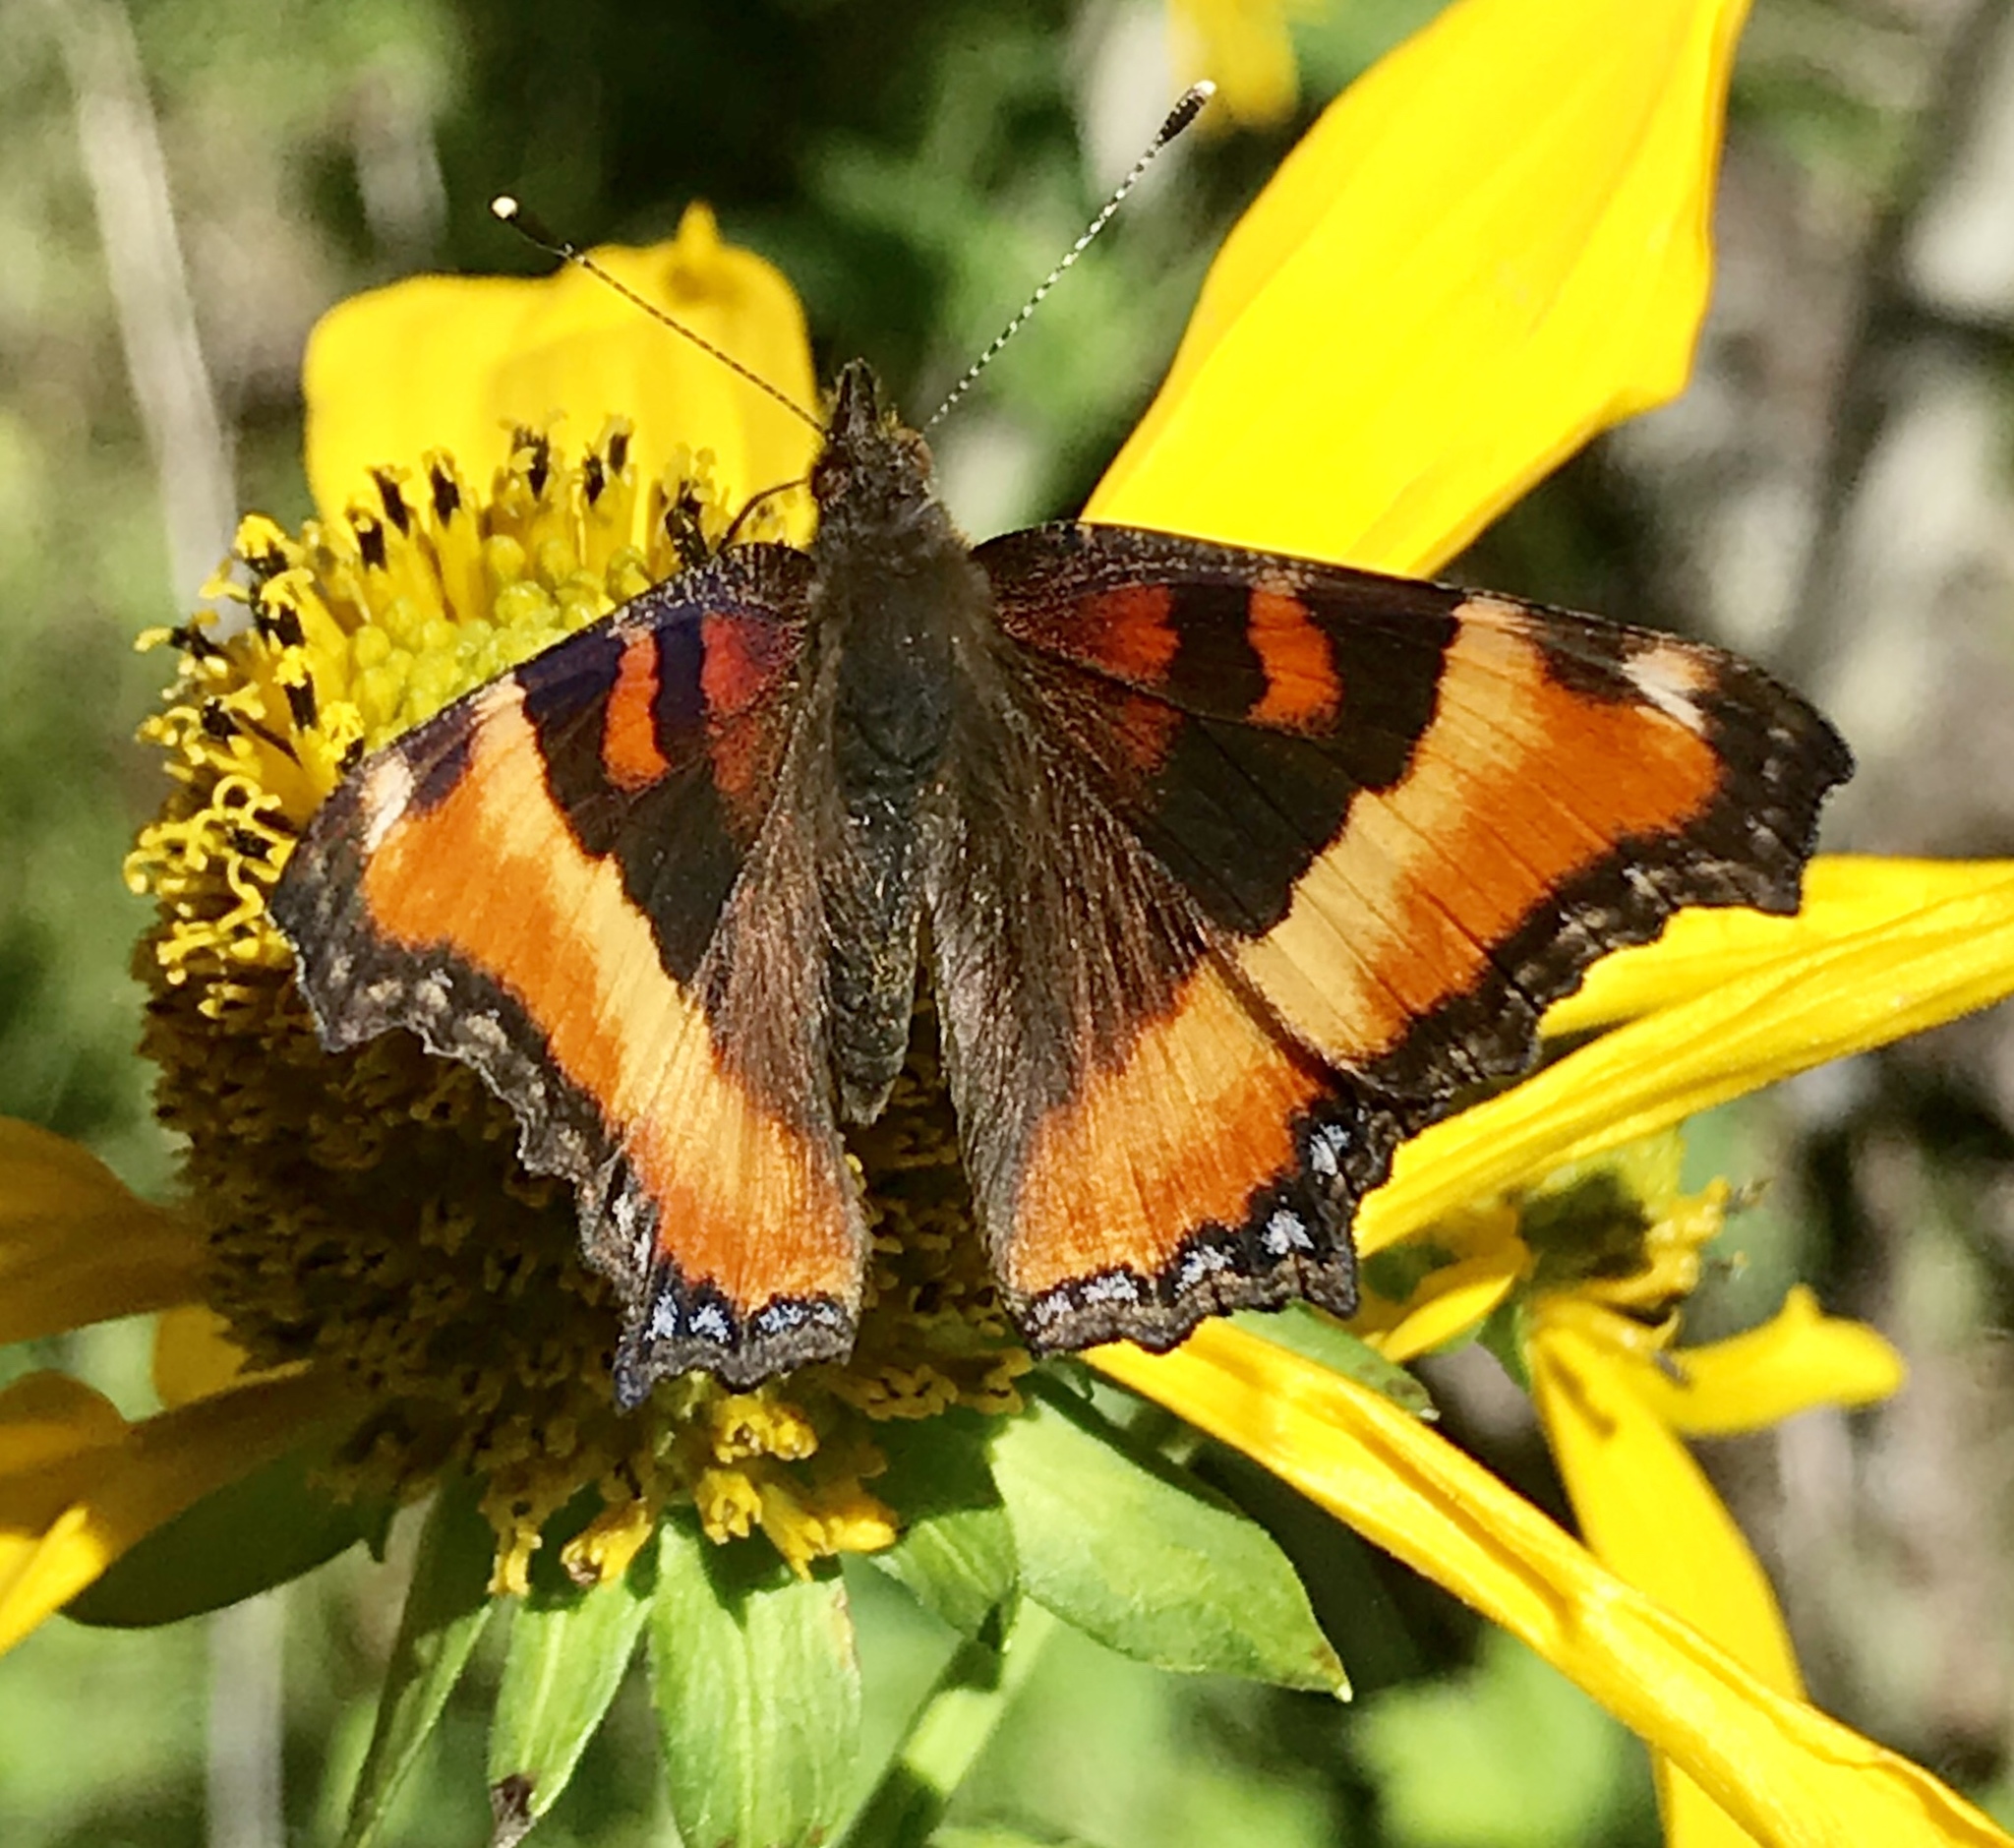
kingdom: Animalia
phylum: Arthropoda
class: Insecta
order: Lepidoptera
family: Nymphalidae
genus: Aglais
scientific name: Aglais milberti
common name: Milbert's tortoiseshell
